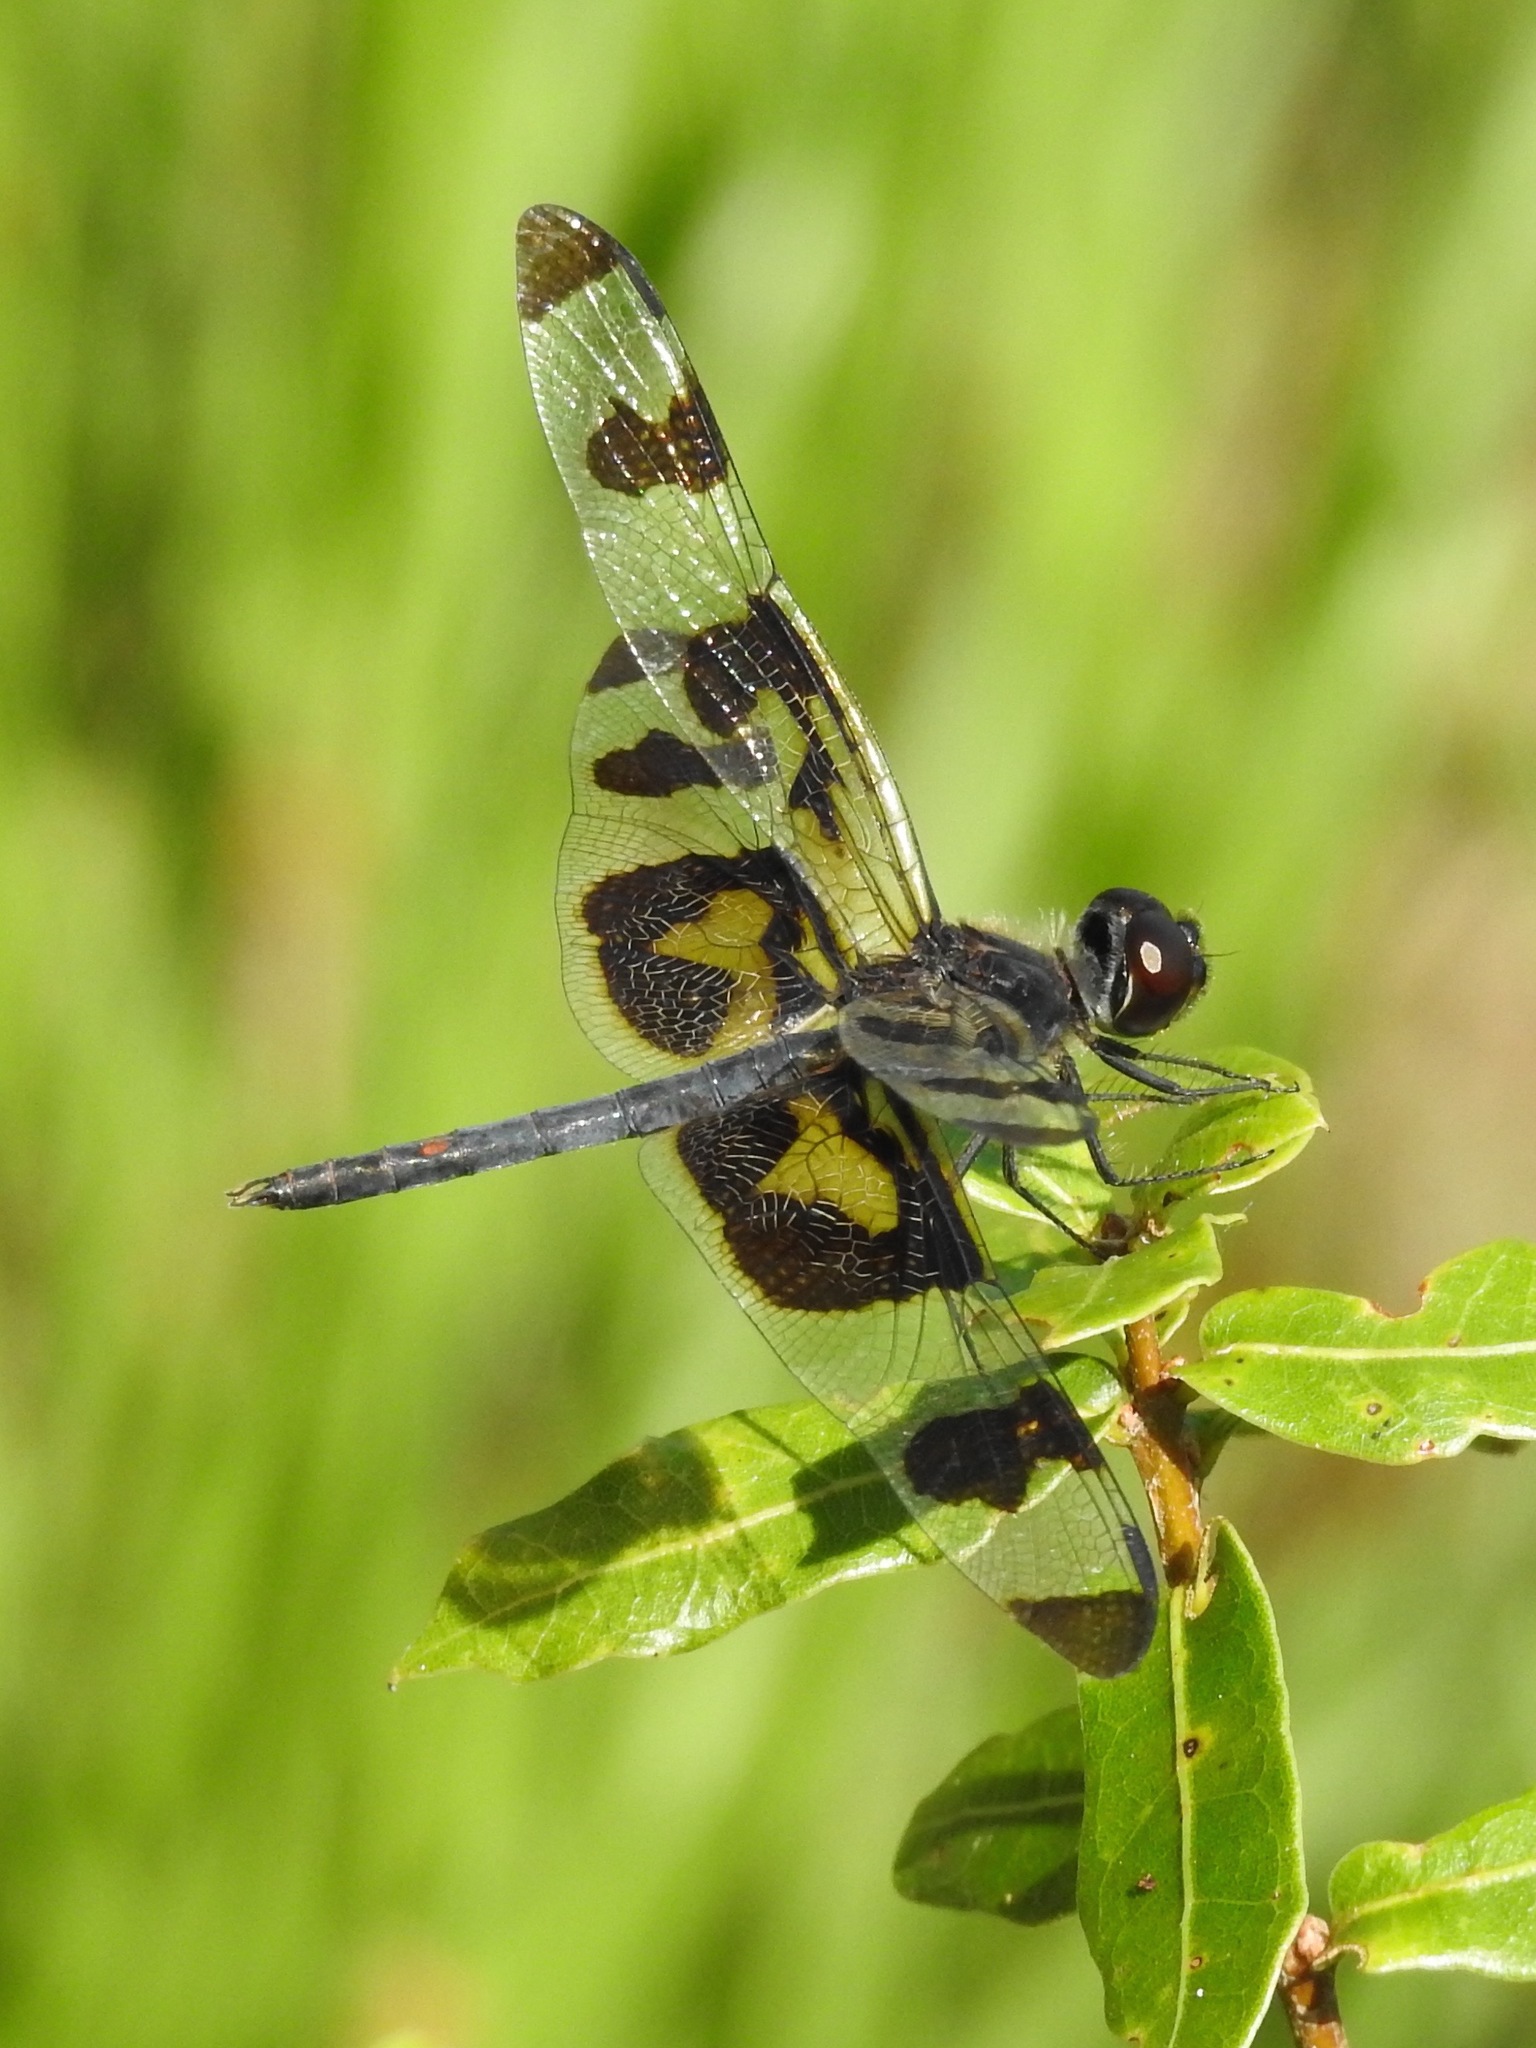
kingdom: Animalia
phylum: Arthropoda
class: Insecta
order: Odonata
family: Libellulidae
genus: Celithemis
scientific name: Celithemis fasciata
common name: Banded pennant
